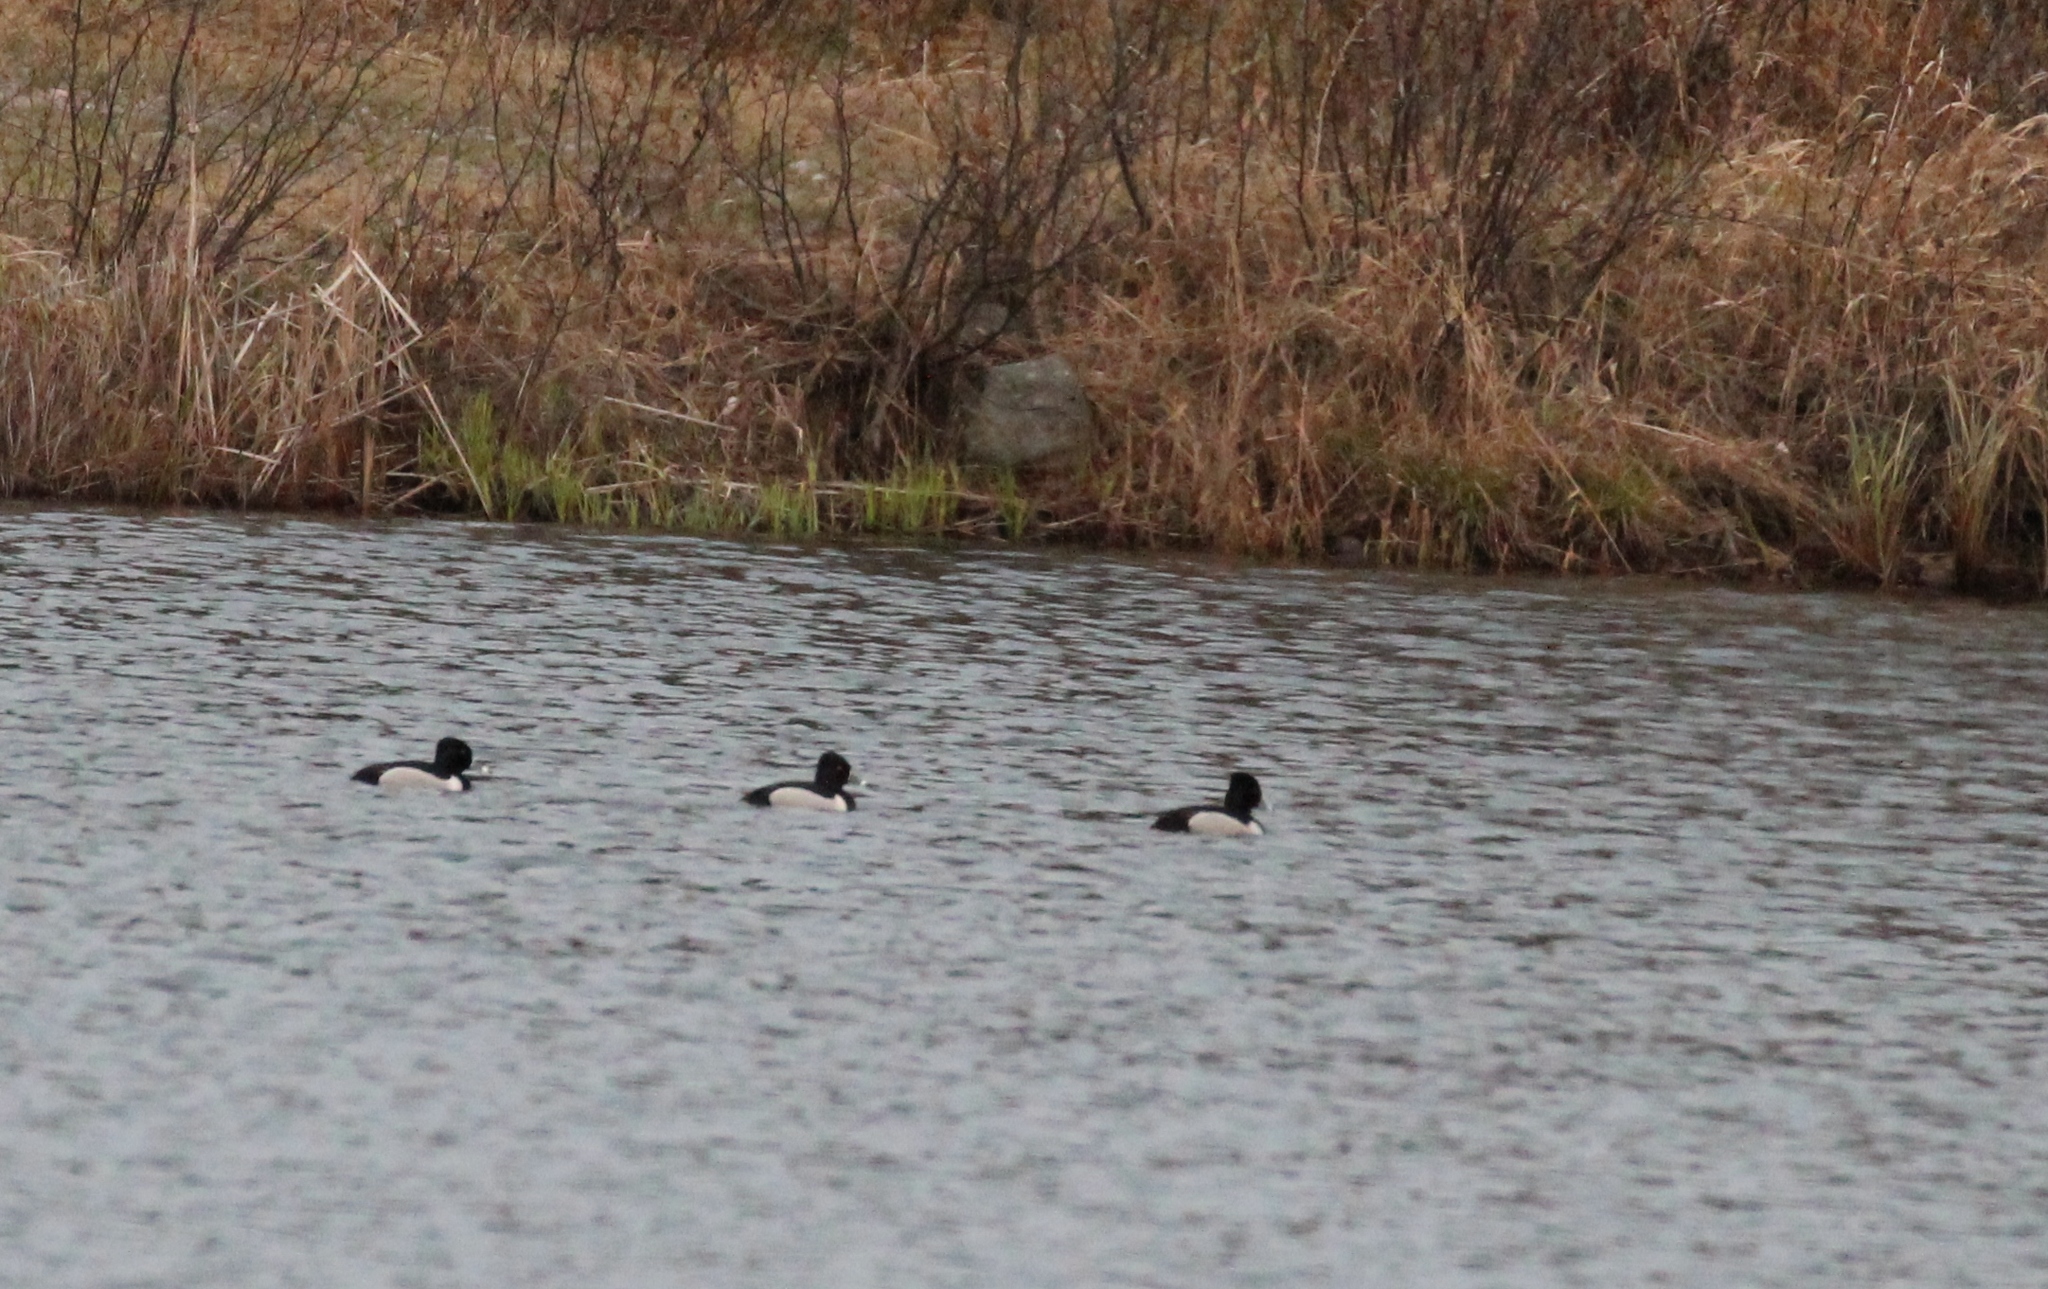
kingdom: Animalia
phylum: Chordata
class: Aves
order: Anseriformes
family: Anatidae
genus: Aythya
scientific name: Aythya collaris
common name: Ring-necked duck
